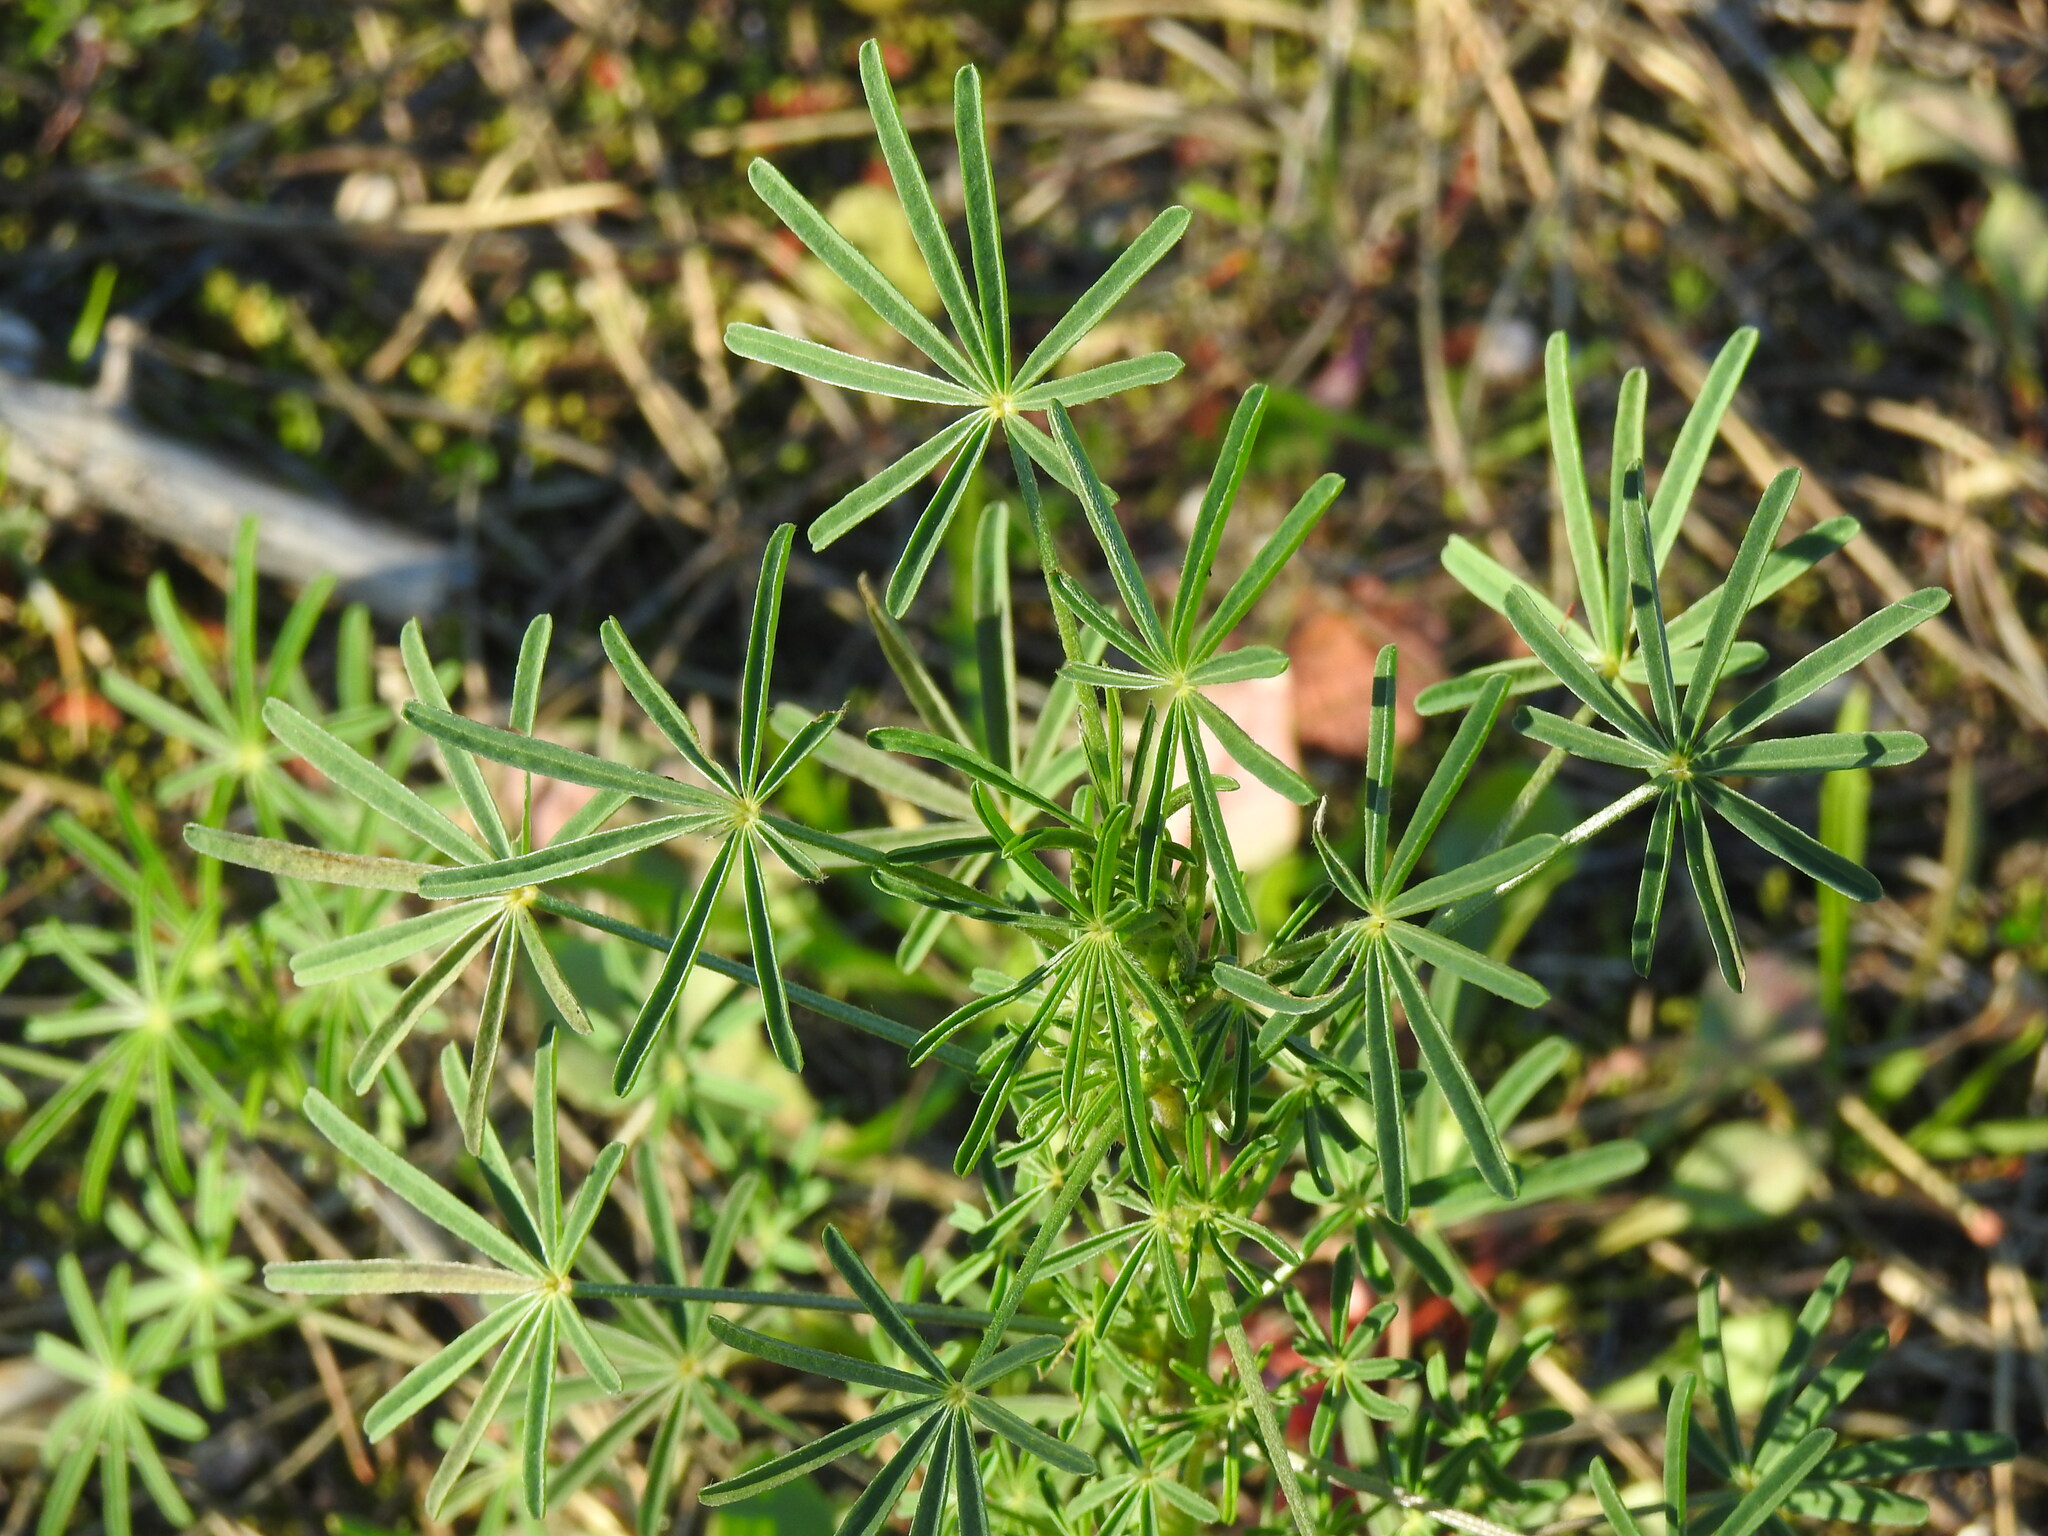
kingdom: Plantae
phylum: Tracheophyta
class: Magnoliopsida
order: Fabales
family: Fabaceae
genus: Lupinus
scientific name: Lupinus angustifolius
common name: Narrow-leaved lupin
